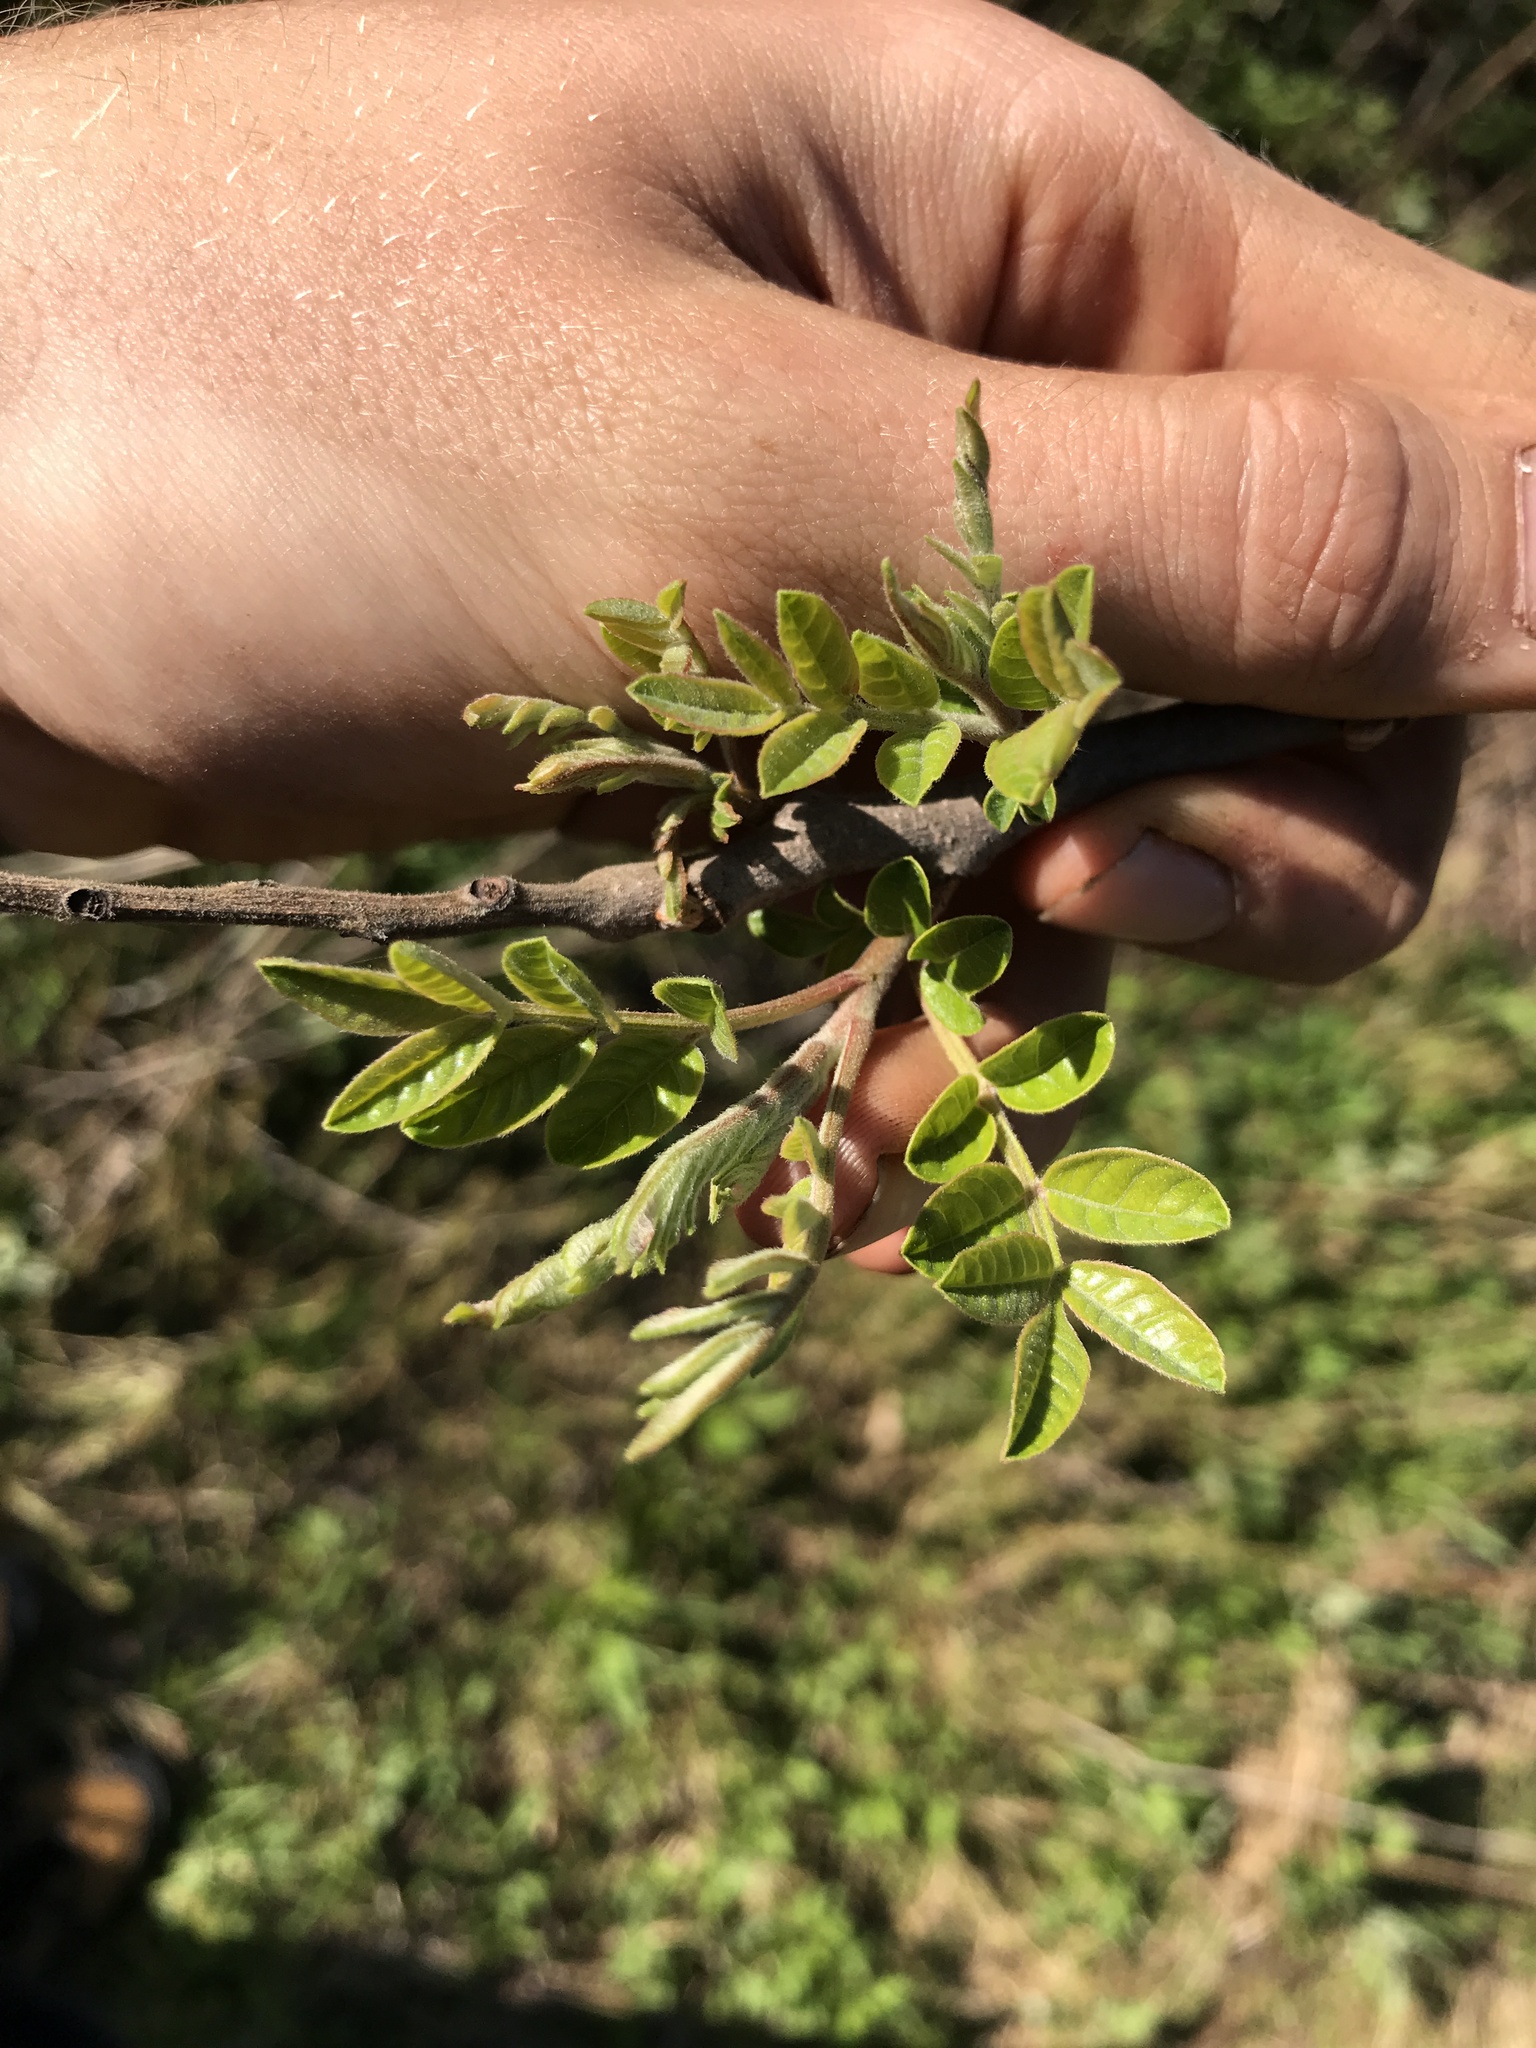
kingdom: Plantae
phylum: Tracheophyta
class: Magnoliopsida
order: Sapindales
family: Anacardiaceae
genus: Rhus
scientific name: Rhus copallina
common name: Shining sumac
